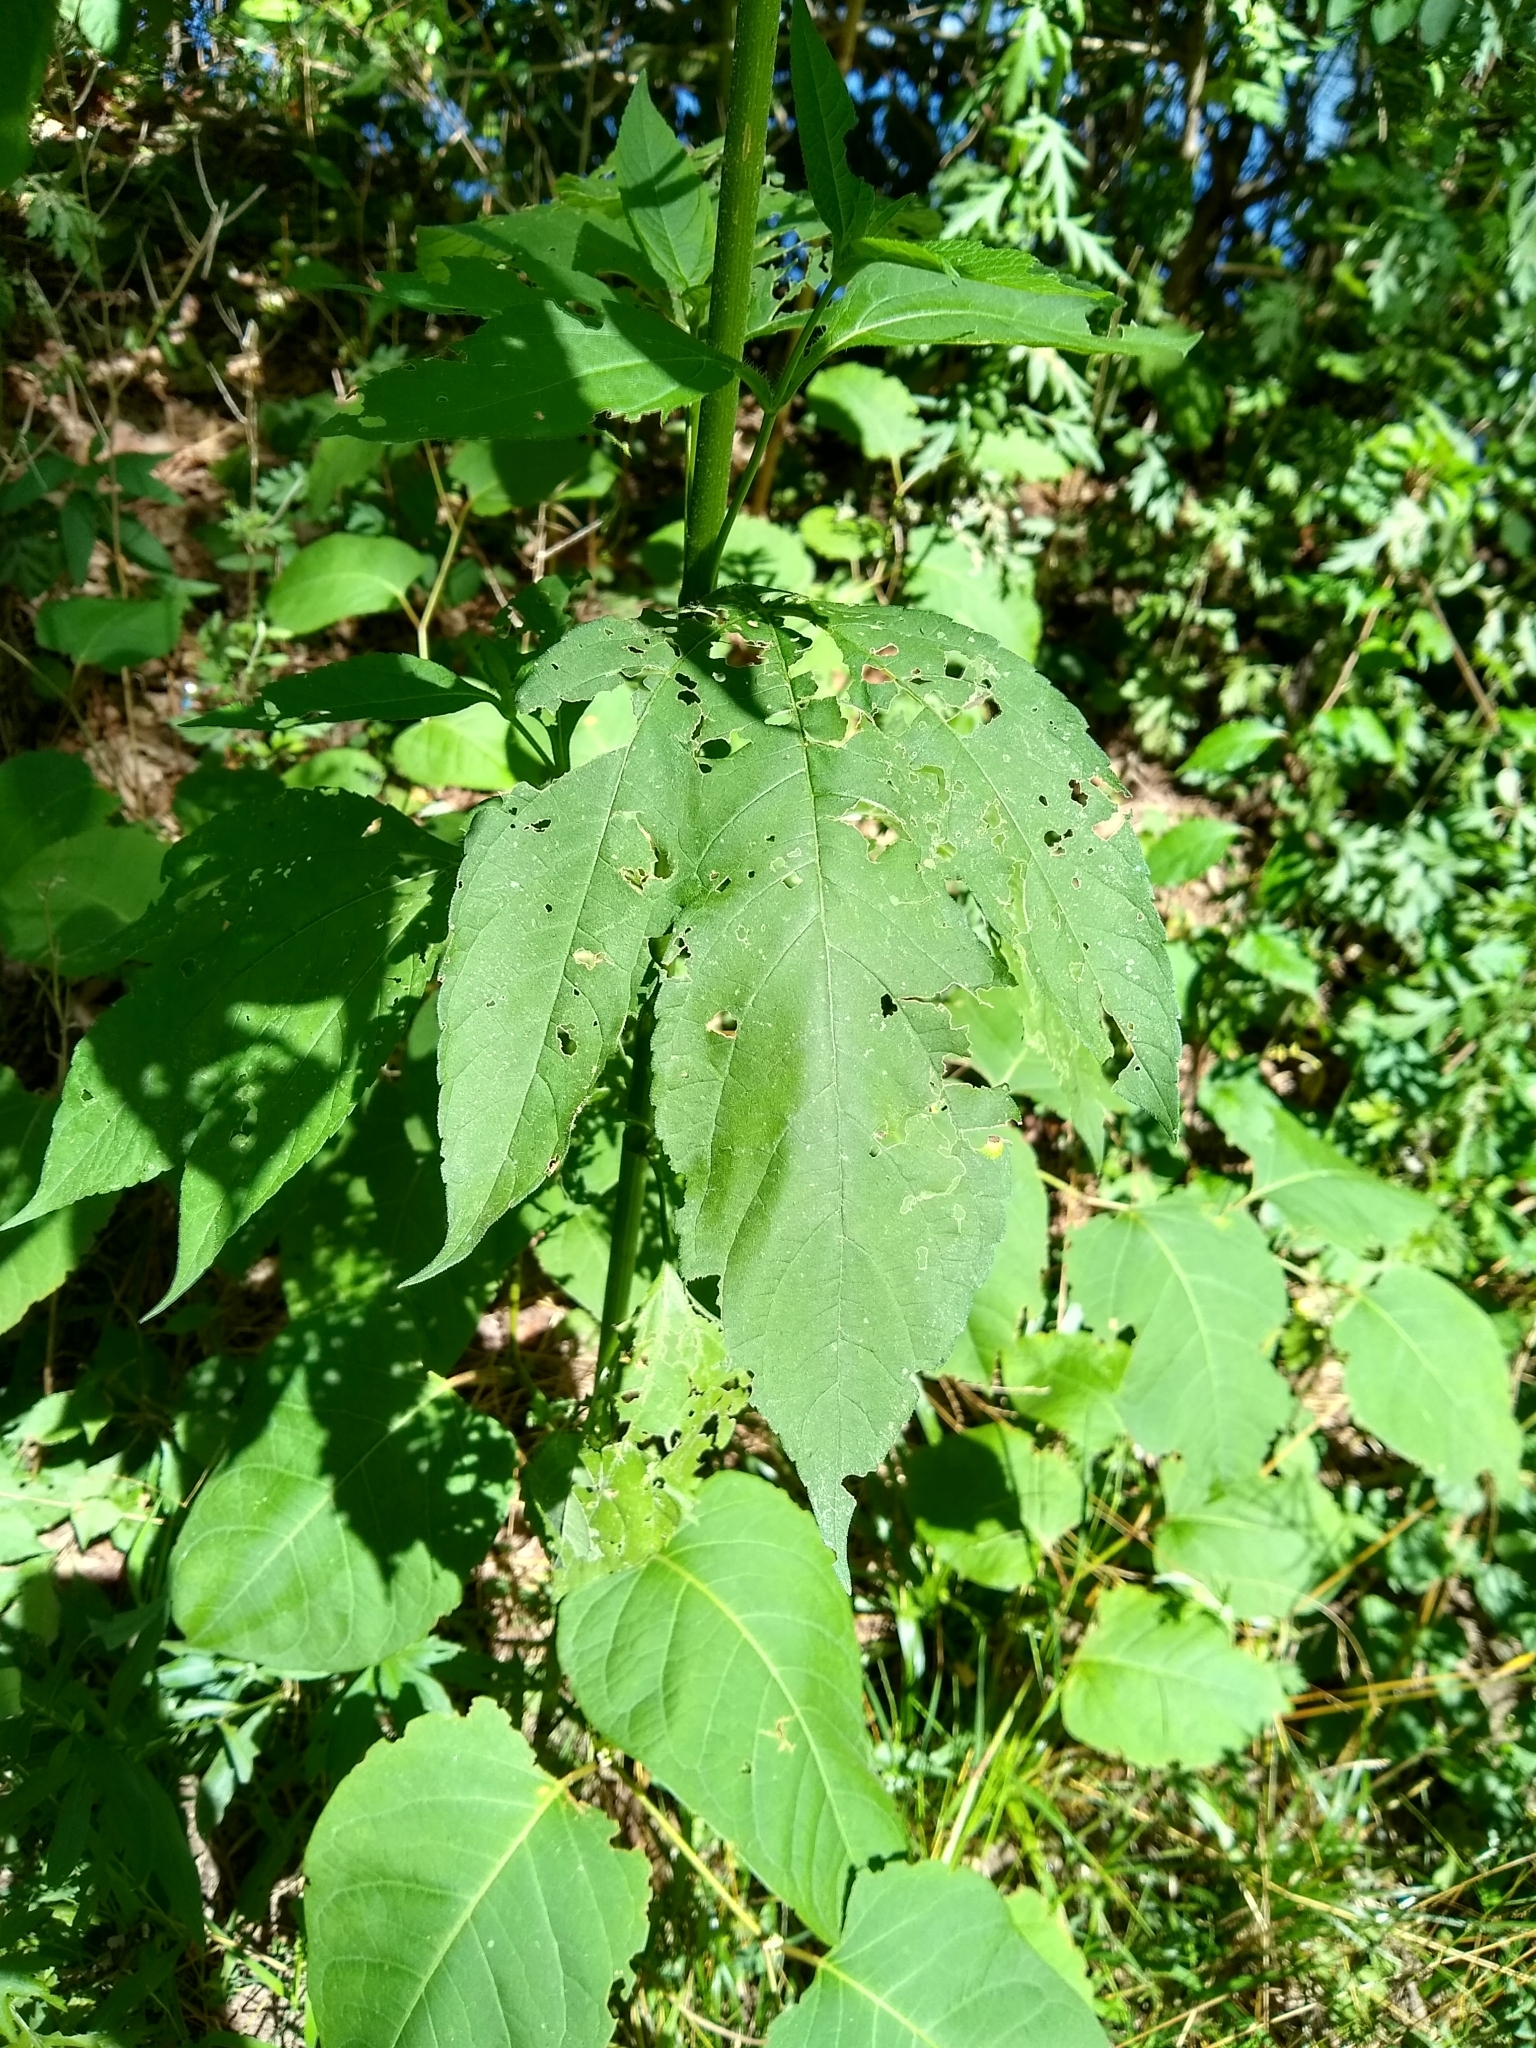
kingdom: Plantae
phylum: Tracheophyta
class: Magnoliopsida
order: Asterales
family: Asteraceae
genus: Ambrosia
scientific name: Ambrosia trifida
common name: Giant ragweed
